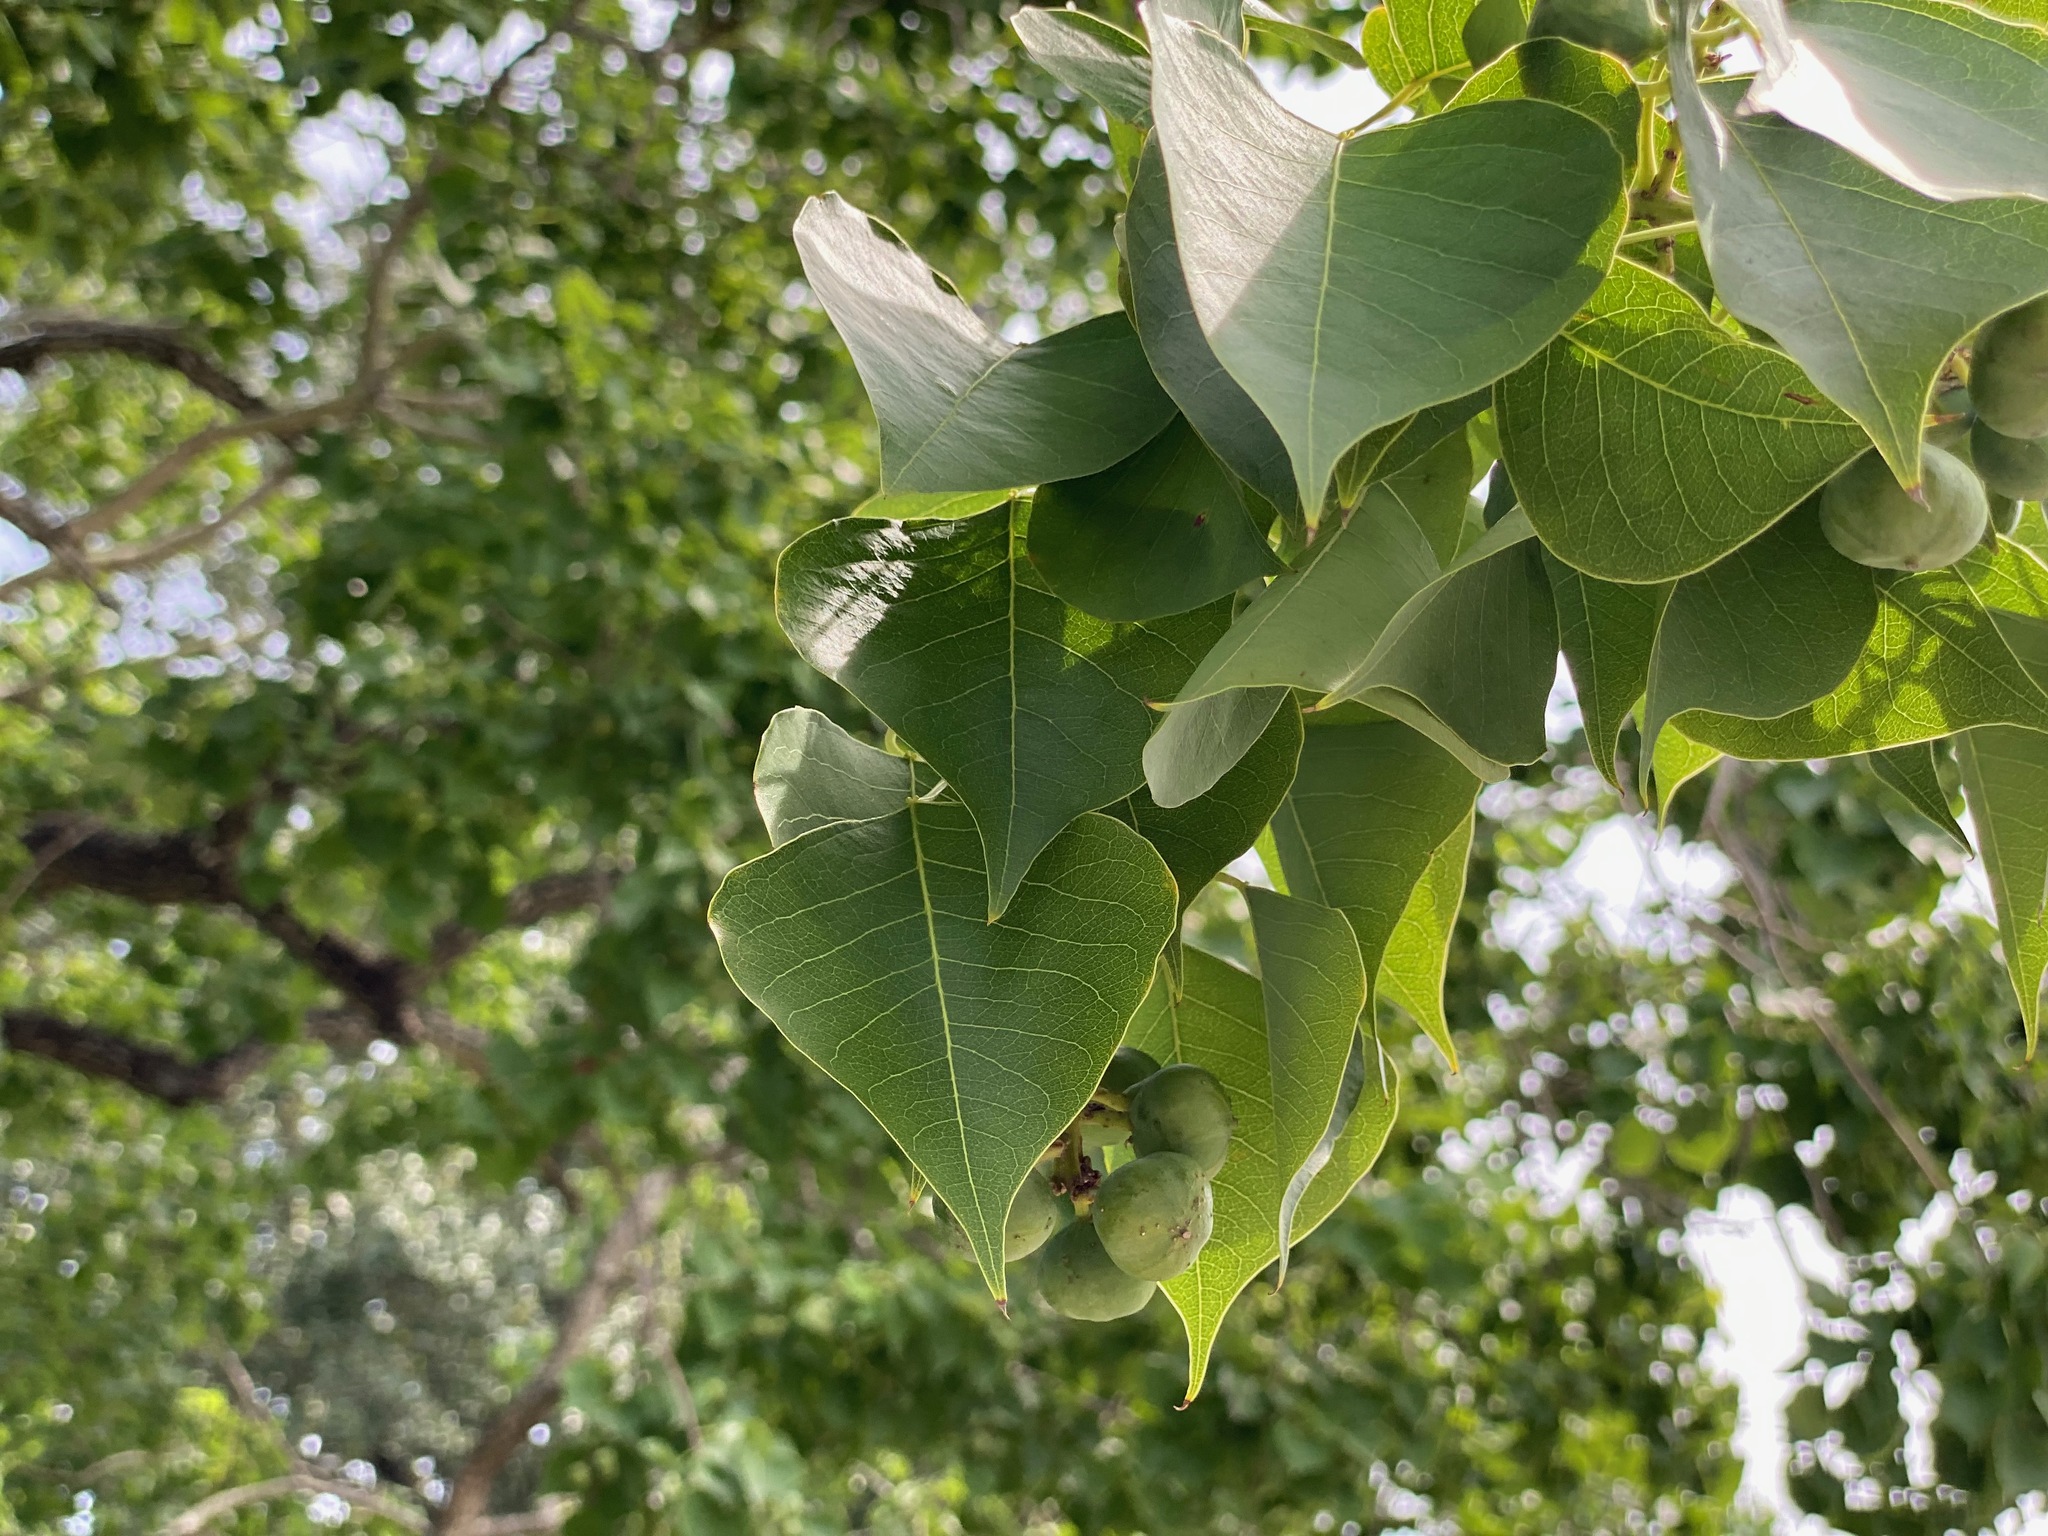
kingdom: Plantae
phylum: Tracheophyta
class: Magnoliopsida
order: Malpighiales
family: Euphorbiaceae
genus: Triadica
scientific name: Triadica sebifera
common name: Chinese tallow
